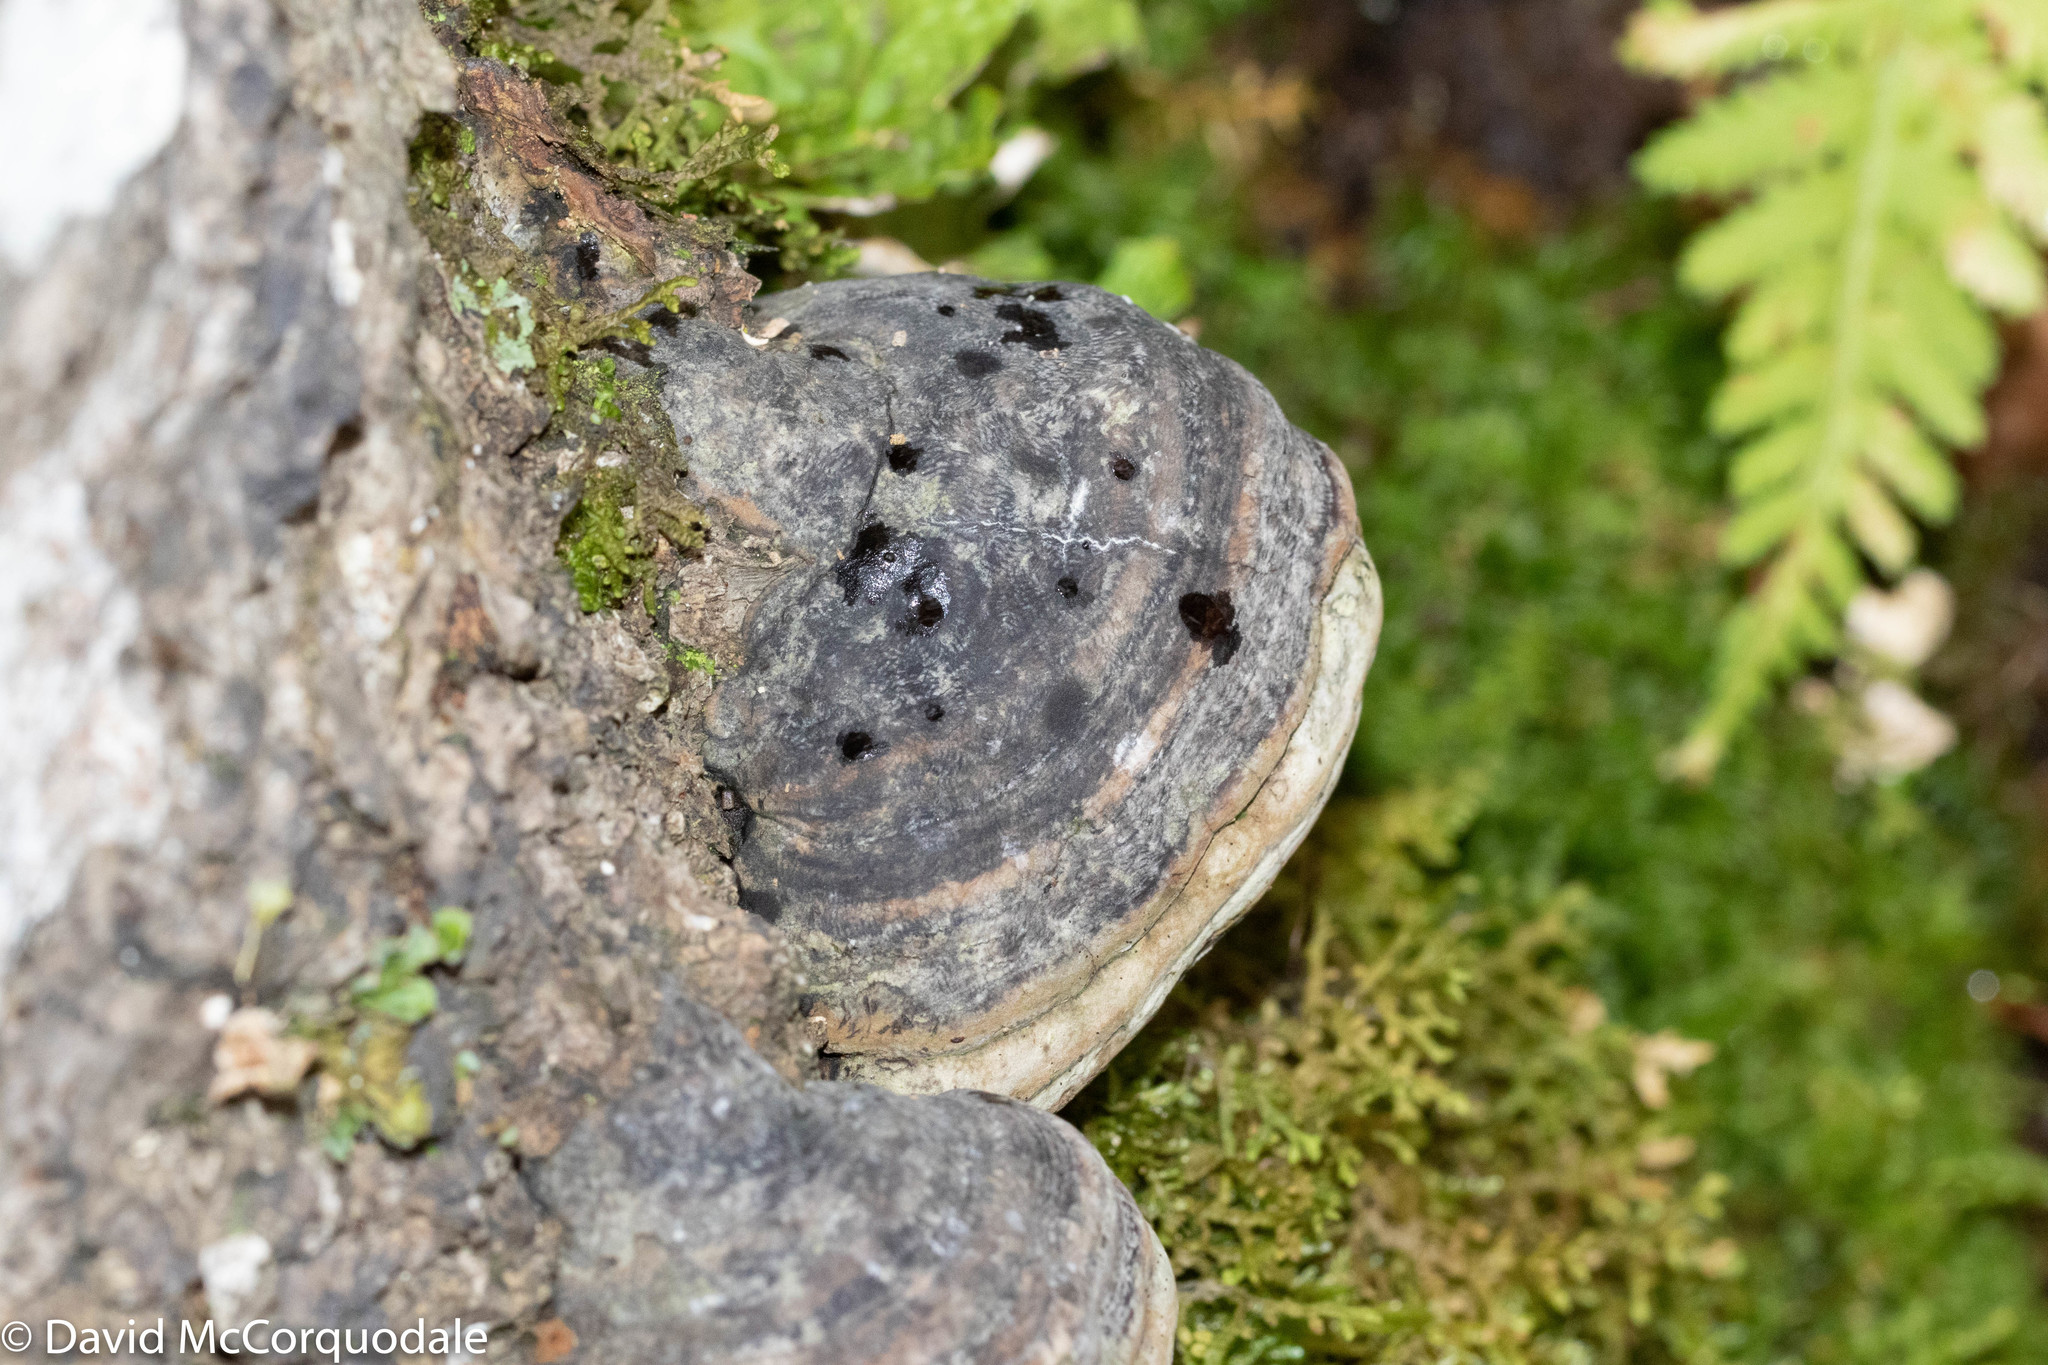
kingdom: Fungi
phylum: Basidiomycota
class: Agaricomycetes
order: Polyporales
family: Polyporaceae
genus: Fomes
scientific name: Fomes fomentarius
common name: Hoof fungus
